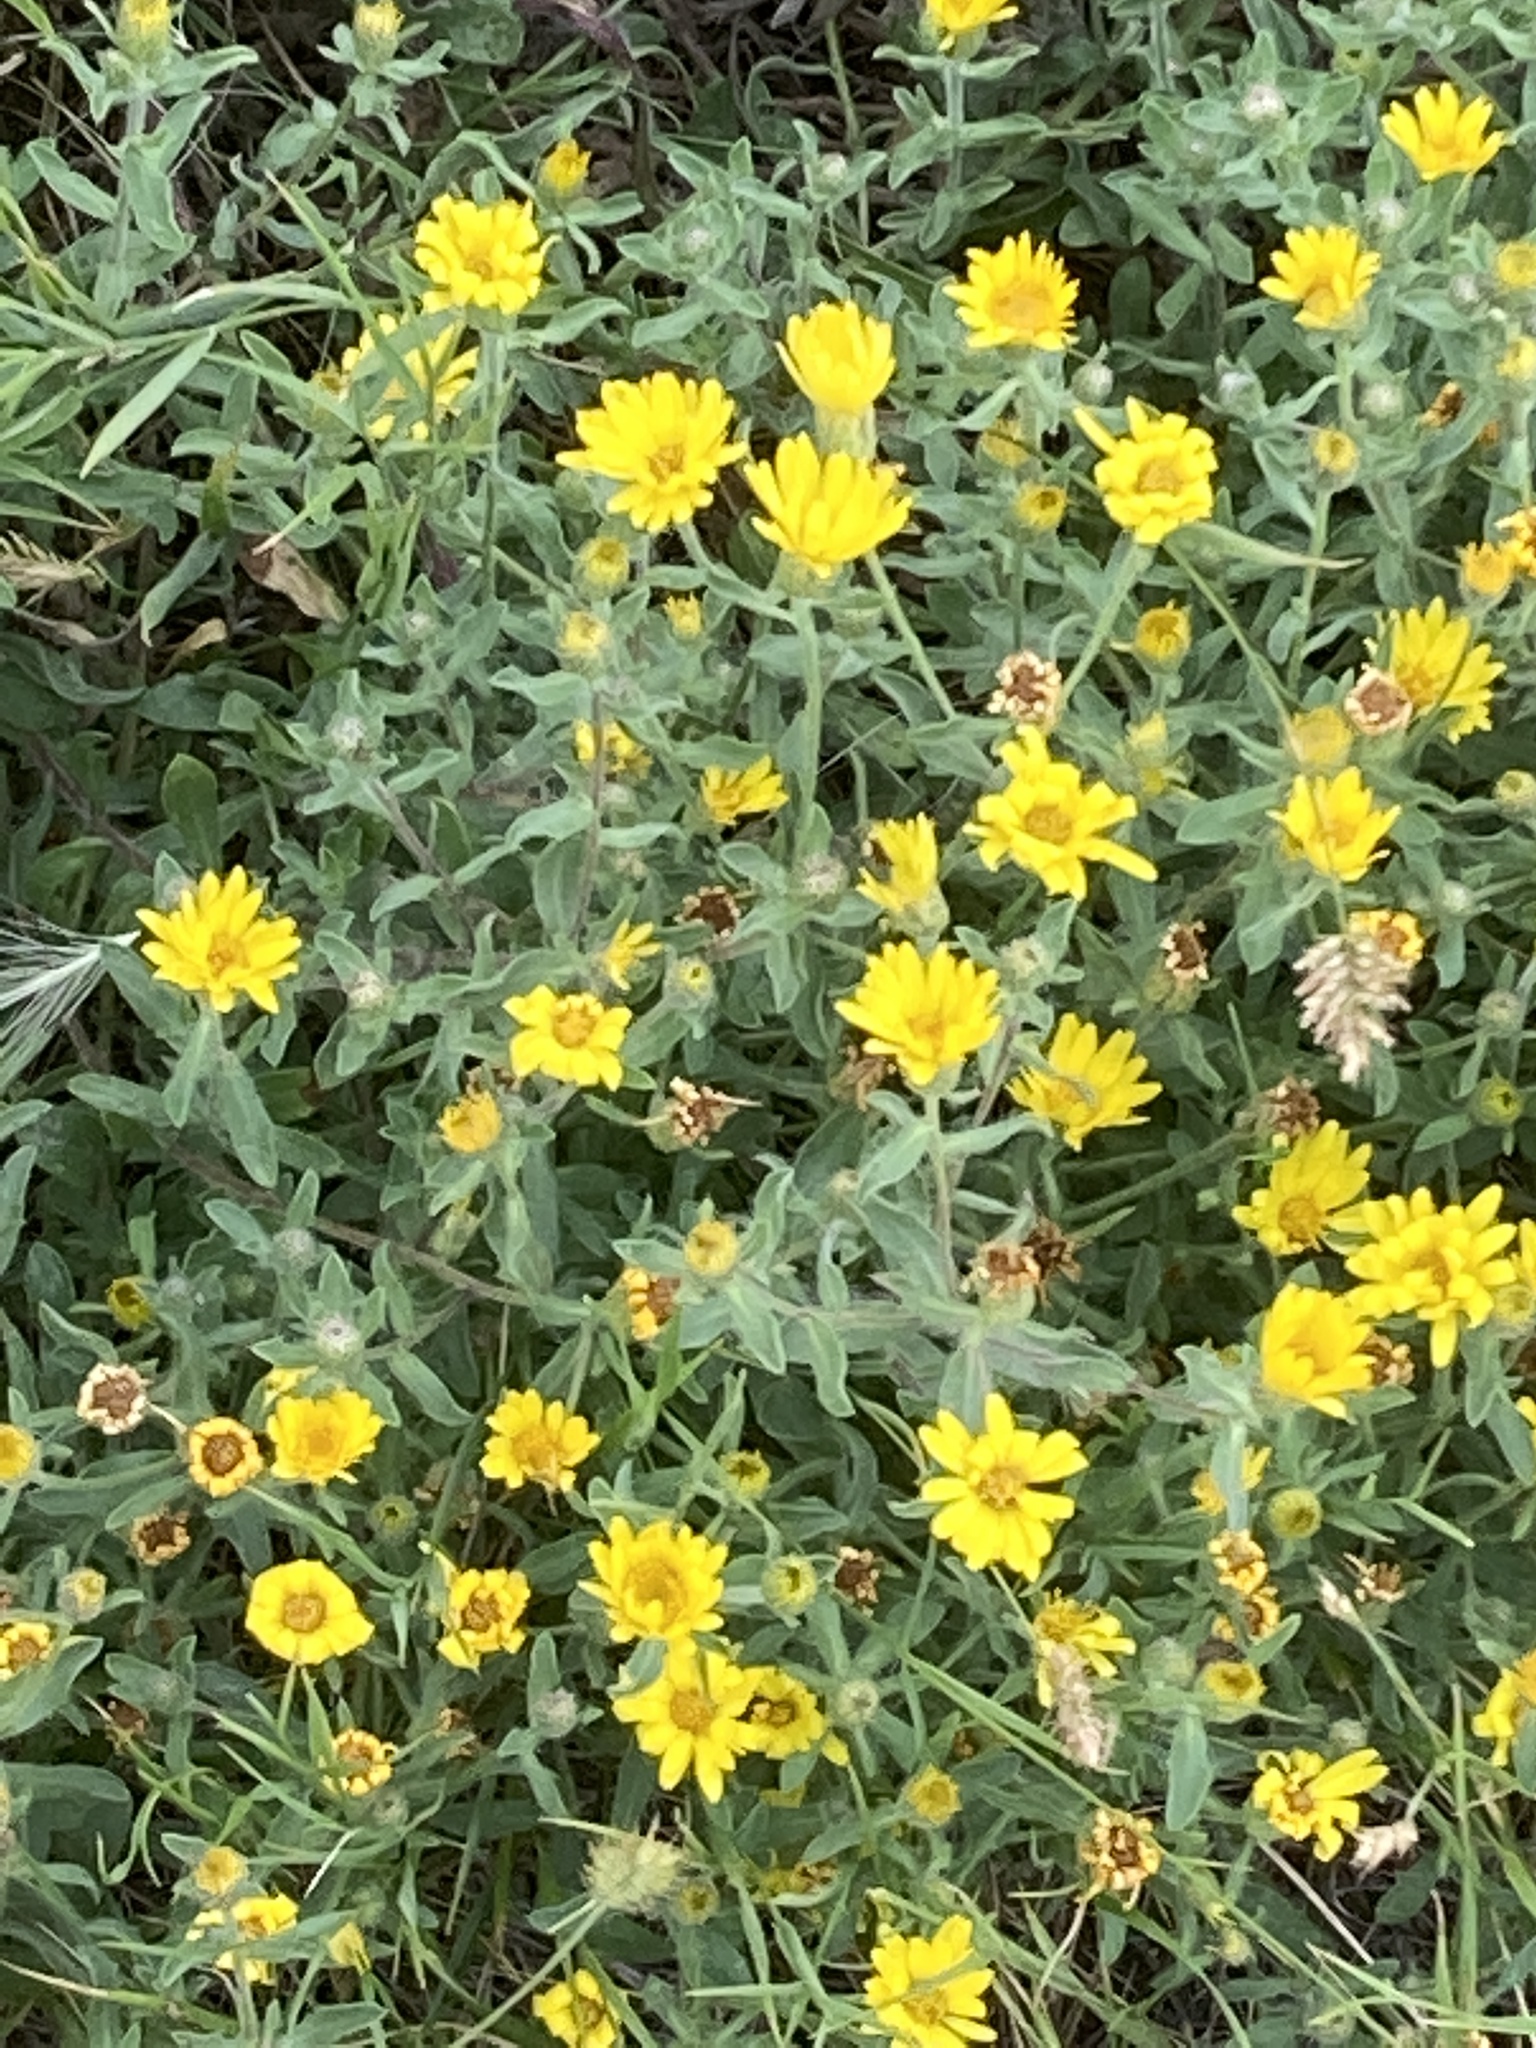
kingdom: Plantae
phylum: Tracheophyta
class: Magnoliopsida
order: Asterales
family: Asteraceae
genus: Heterotheca
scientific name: Heterotheca villosa
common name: Hairy false goldenaster
